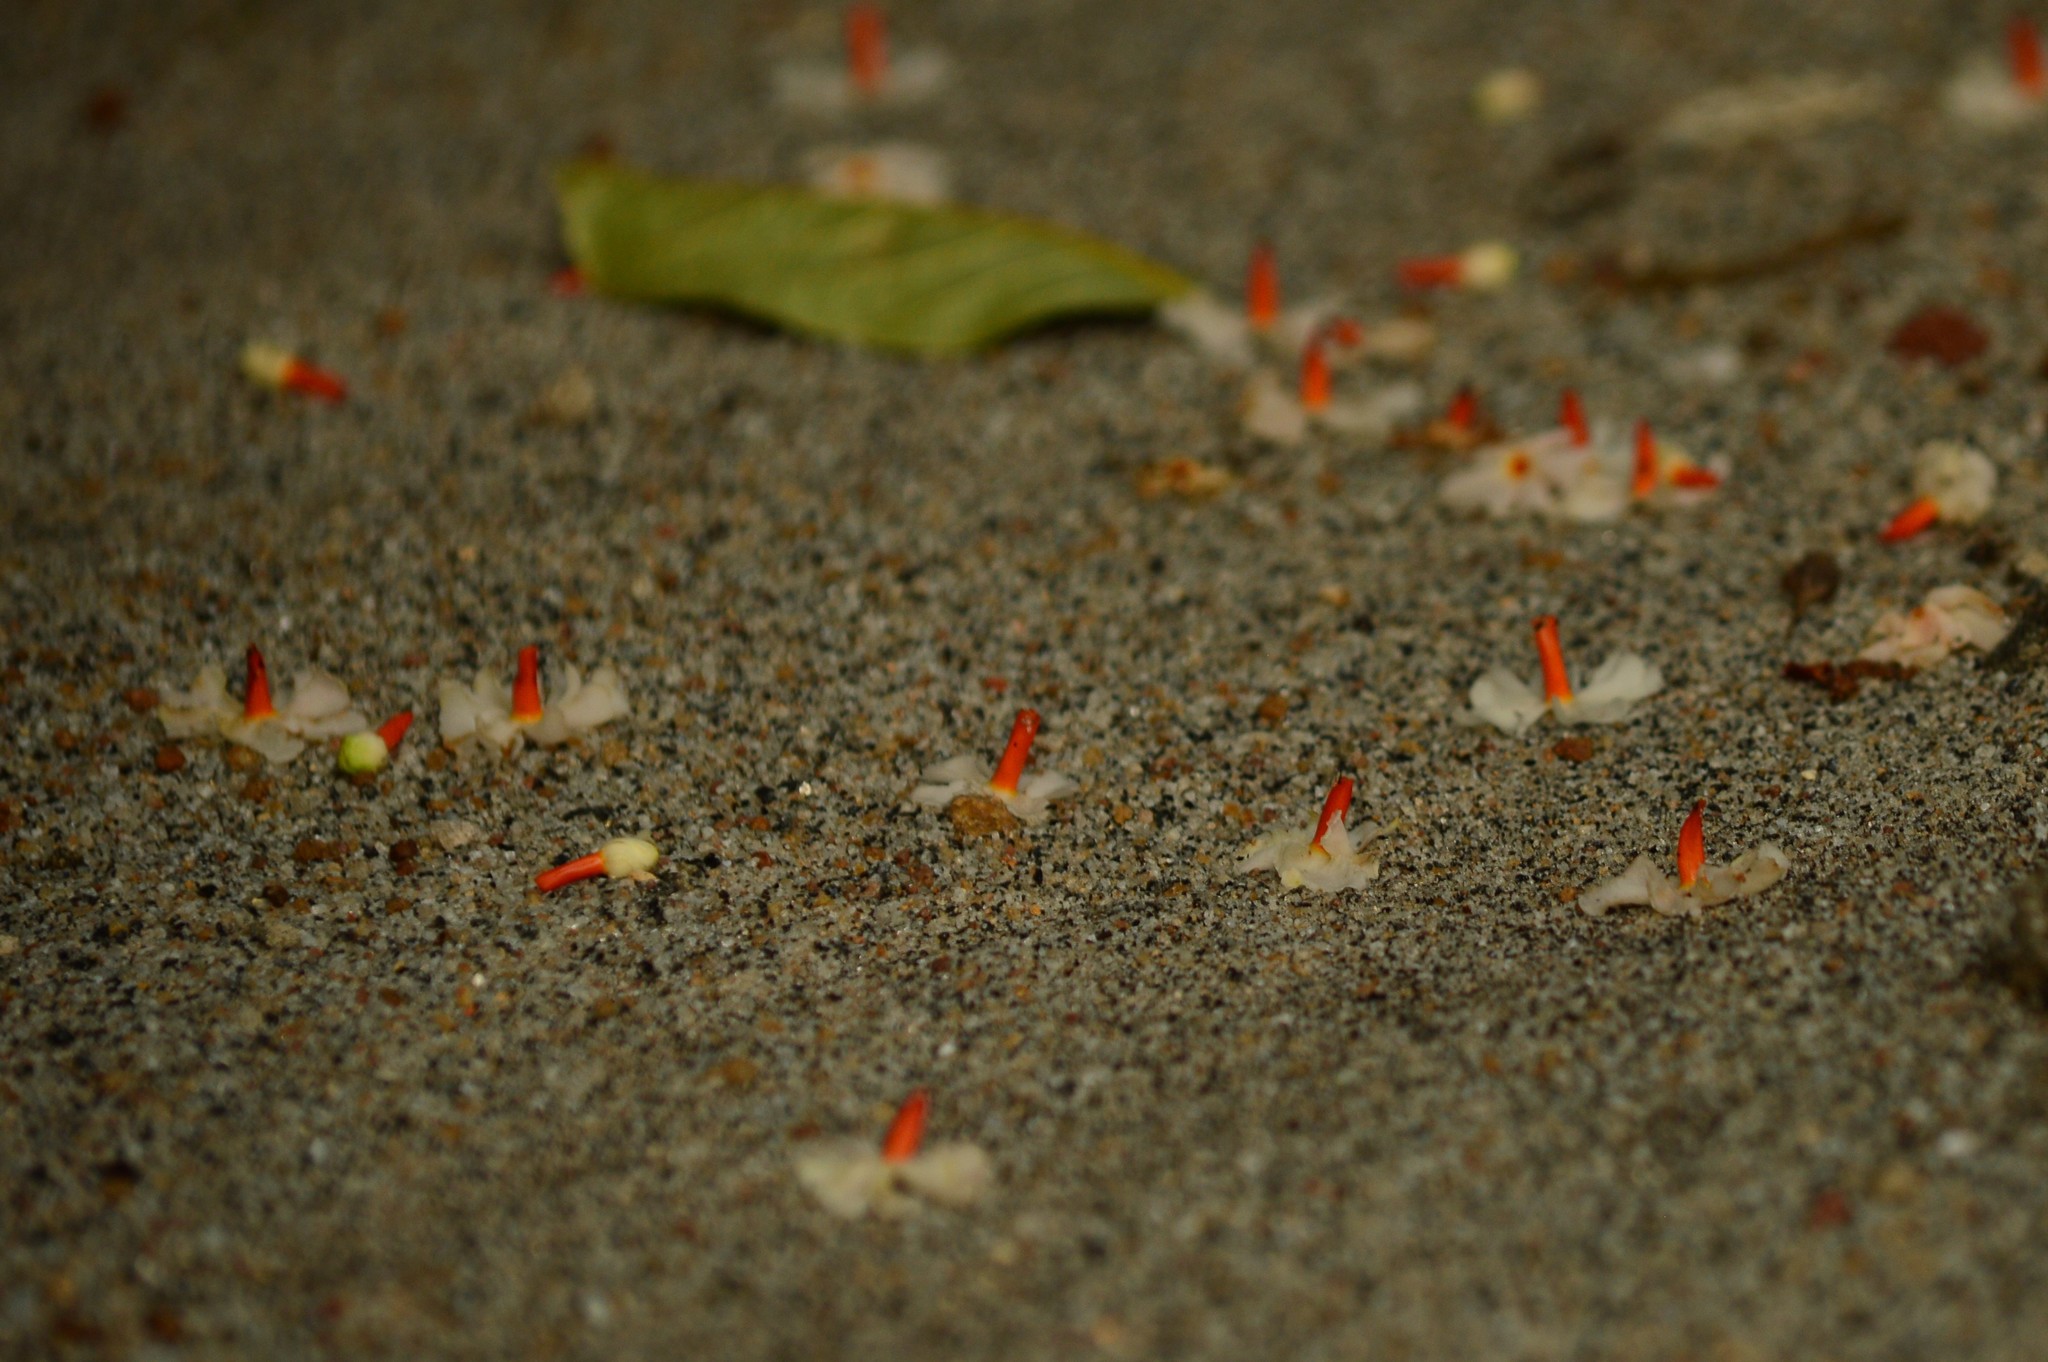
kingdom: Plantae
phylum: Tracheophyta
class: Magnoliopsida
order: Lamiales
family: Oleaceae
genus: Nyctanthes
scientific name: Nyctanthes arbor-tristis
